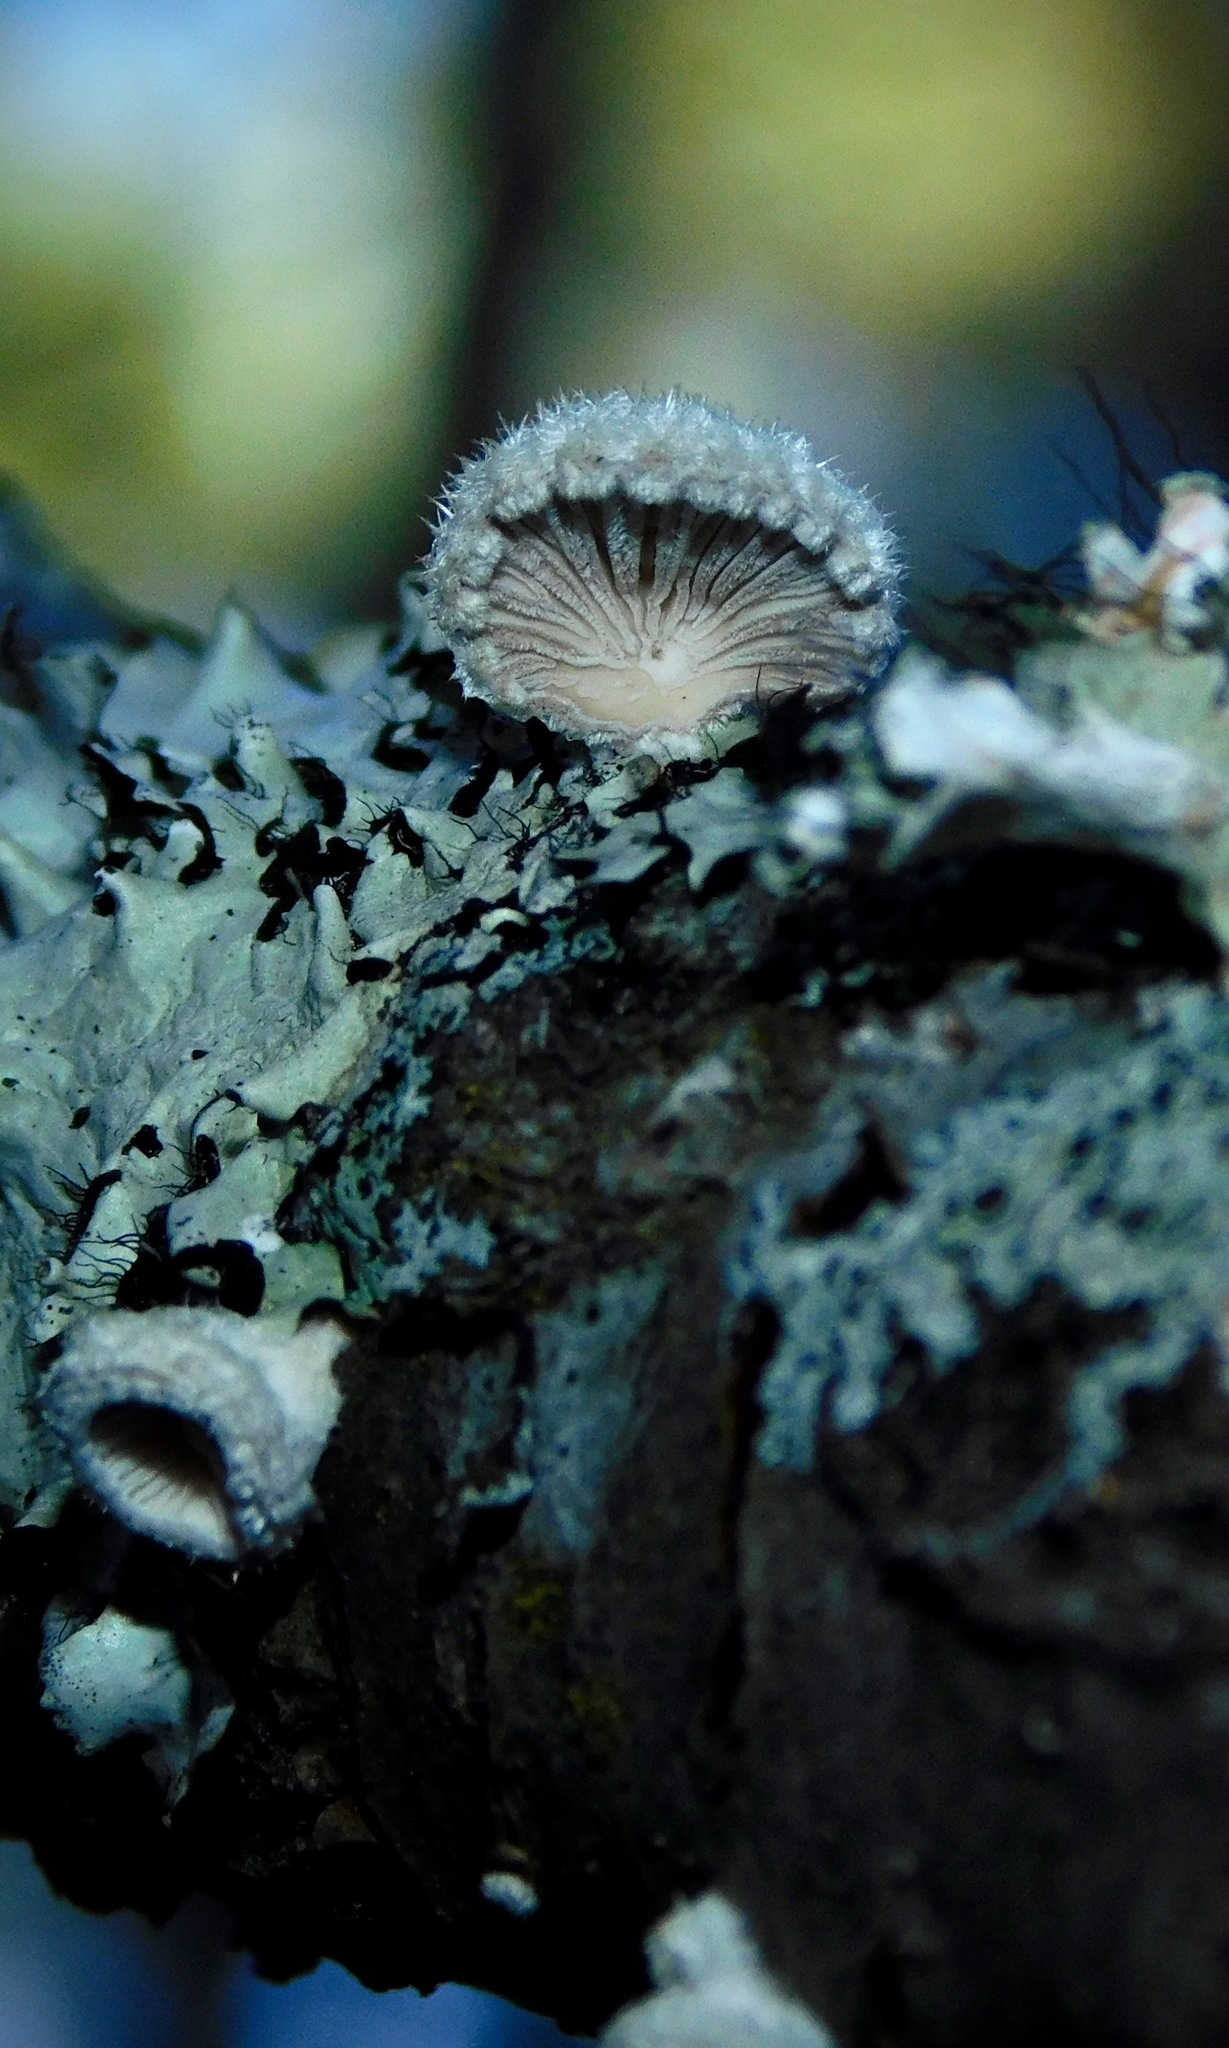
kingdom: Fungi
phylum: Basidiomycota
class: Agaricomycetes
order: Agaricales
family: Schizophyllaceae
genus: Schizophyllum
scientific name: Schizophyllum commune
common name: Common porecrust
